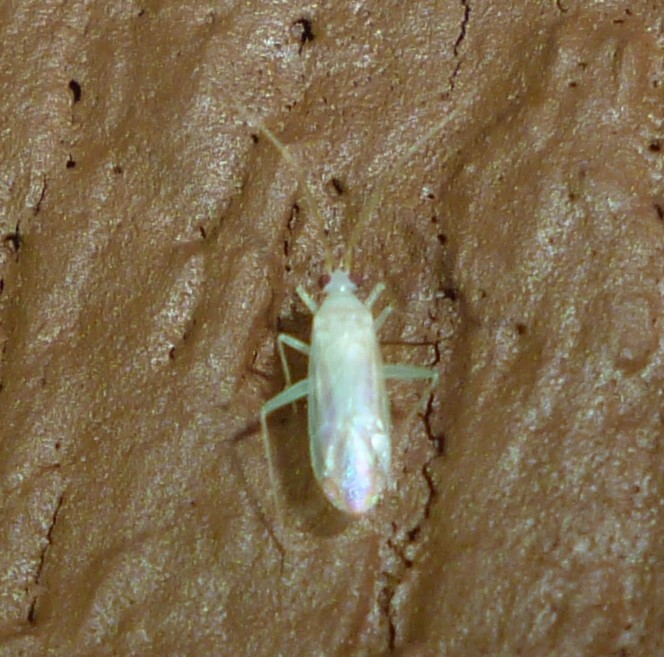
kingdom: Animalia
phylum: Arthropoda
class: Insecta
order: Hemiptera
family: Miridae
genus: Blepharidopterus
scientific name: Blepharidopterus provancheri
